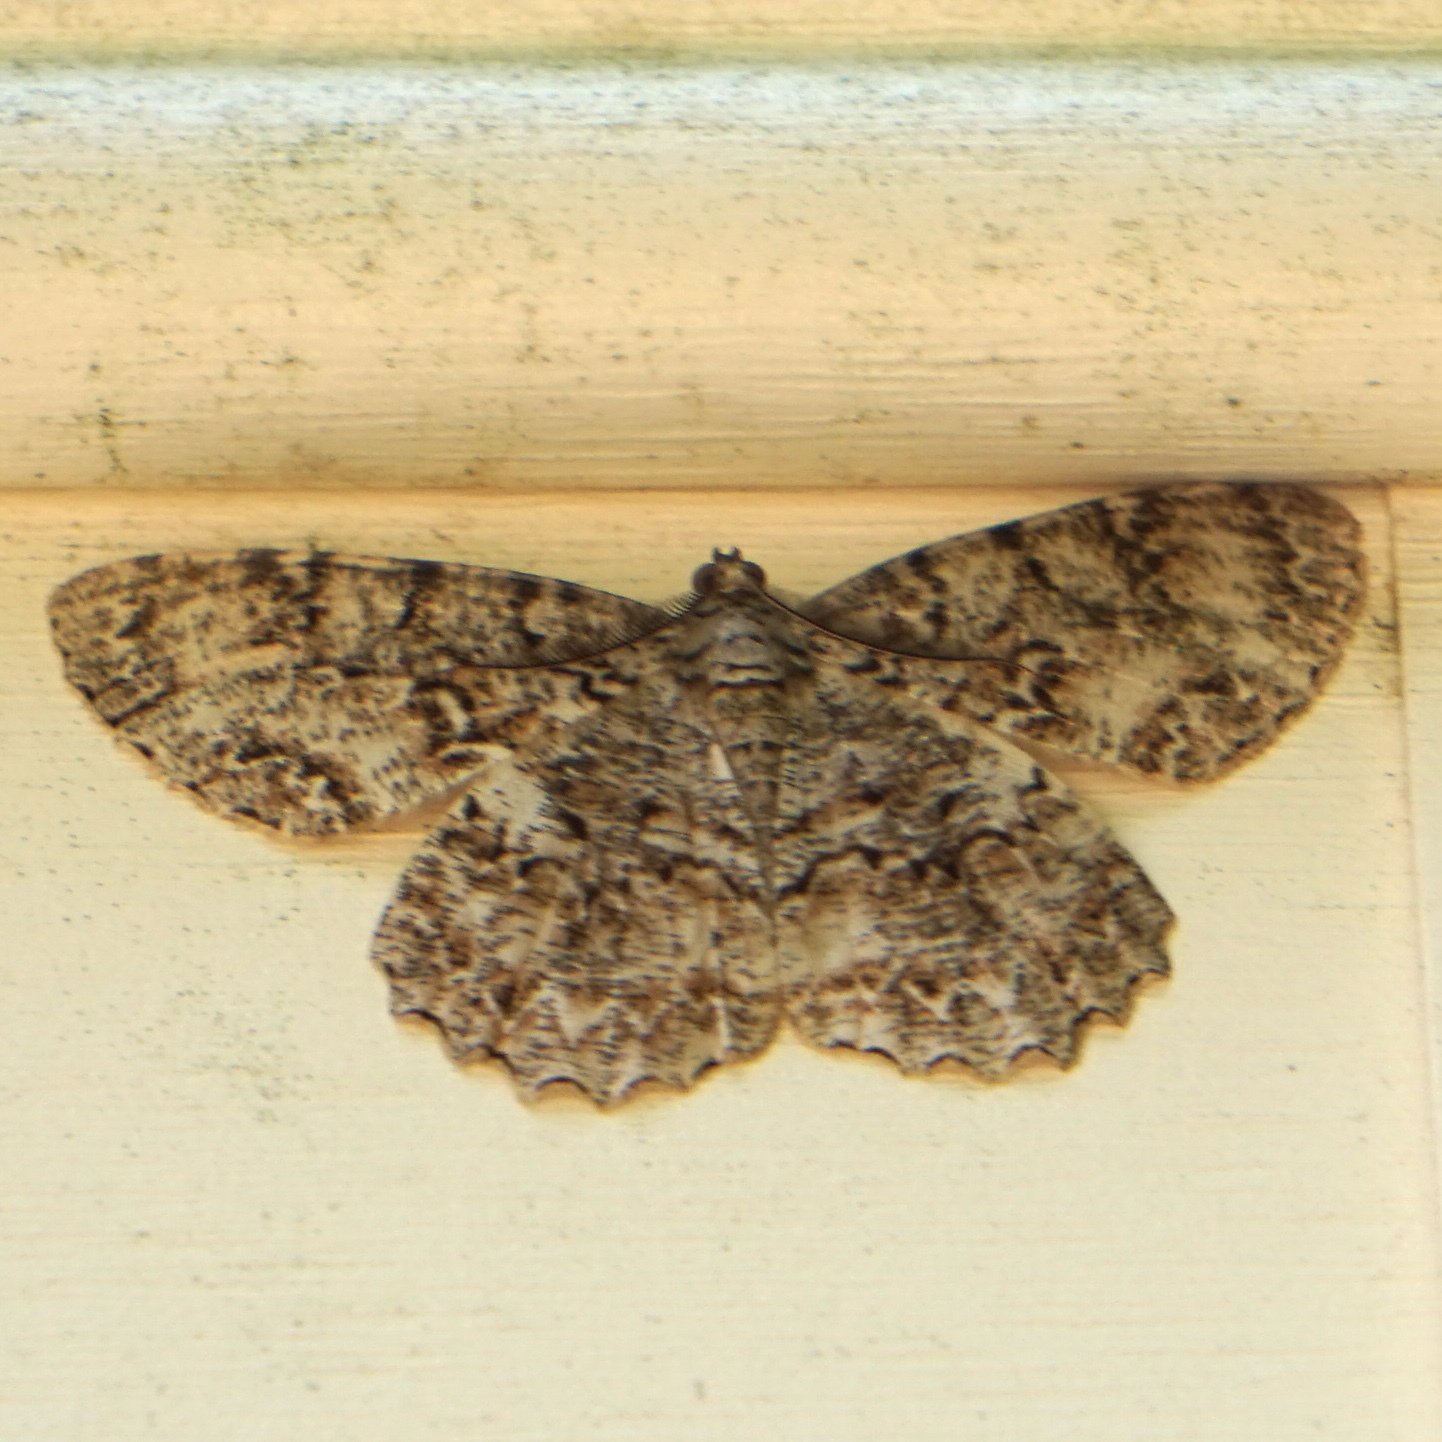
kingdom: Animalia
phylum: Arthropoda
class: Insecta
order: Lepidoptera
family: Geometridae
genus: Epimecis
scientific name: Epimecis hortaria
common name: Tulip-tree beauty
